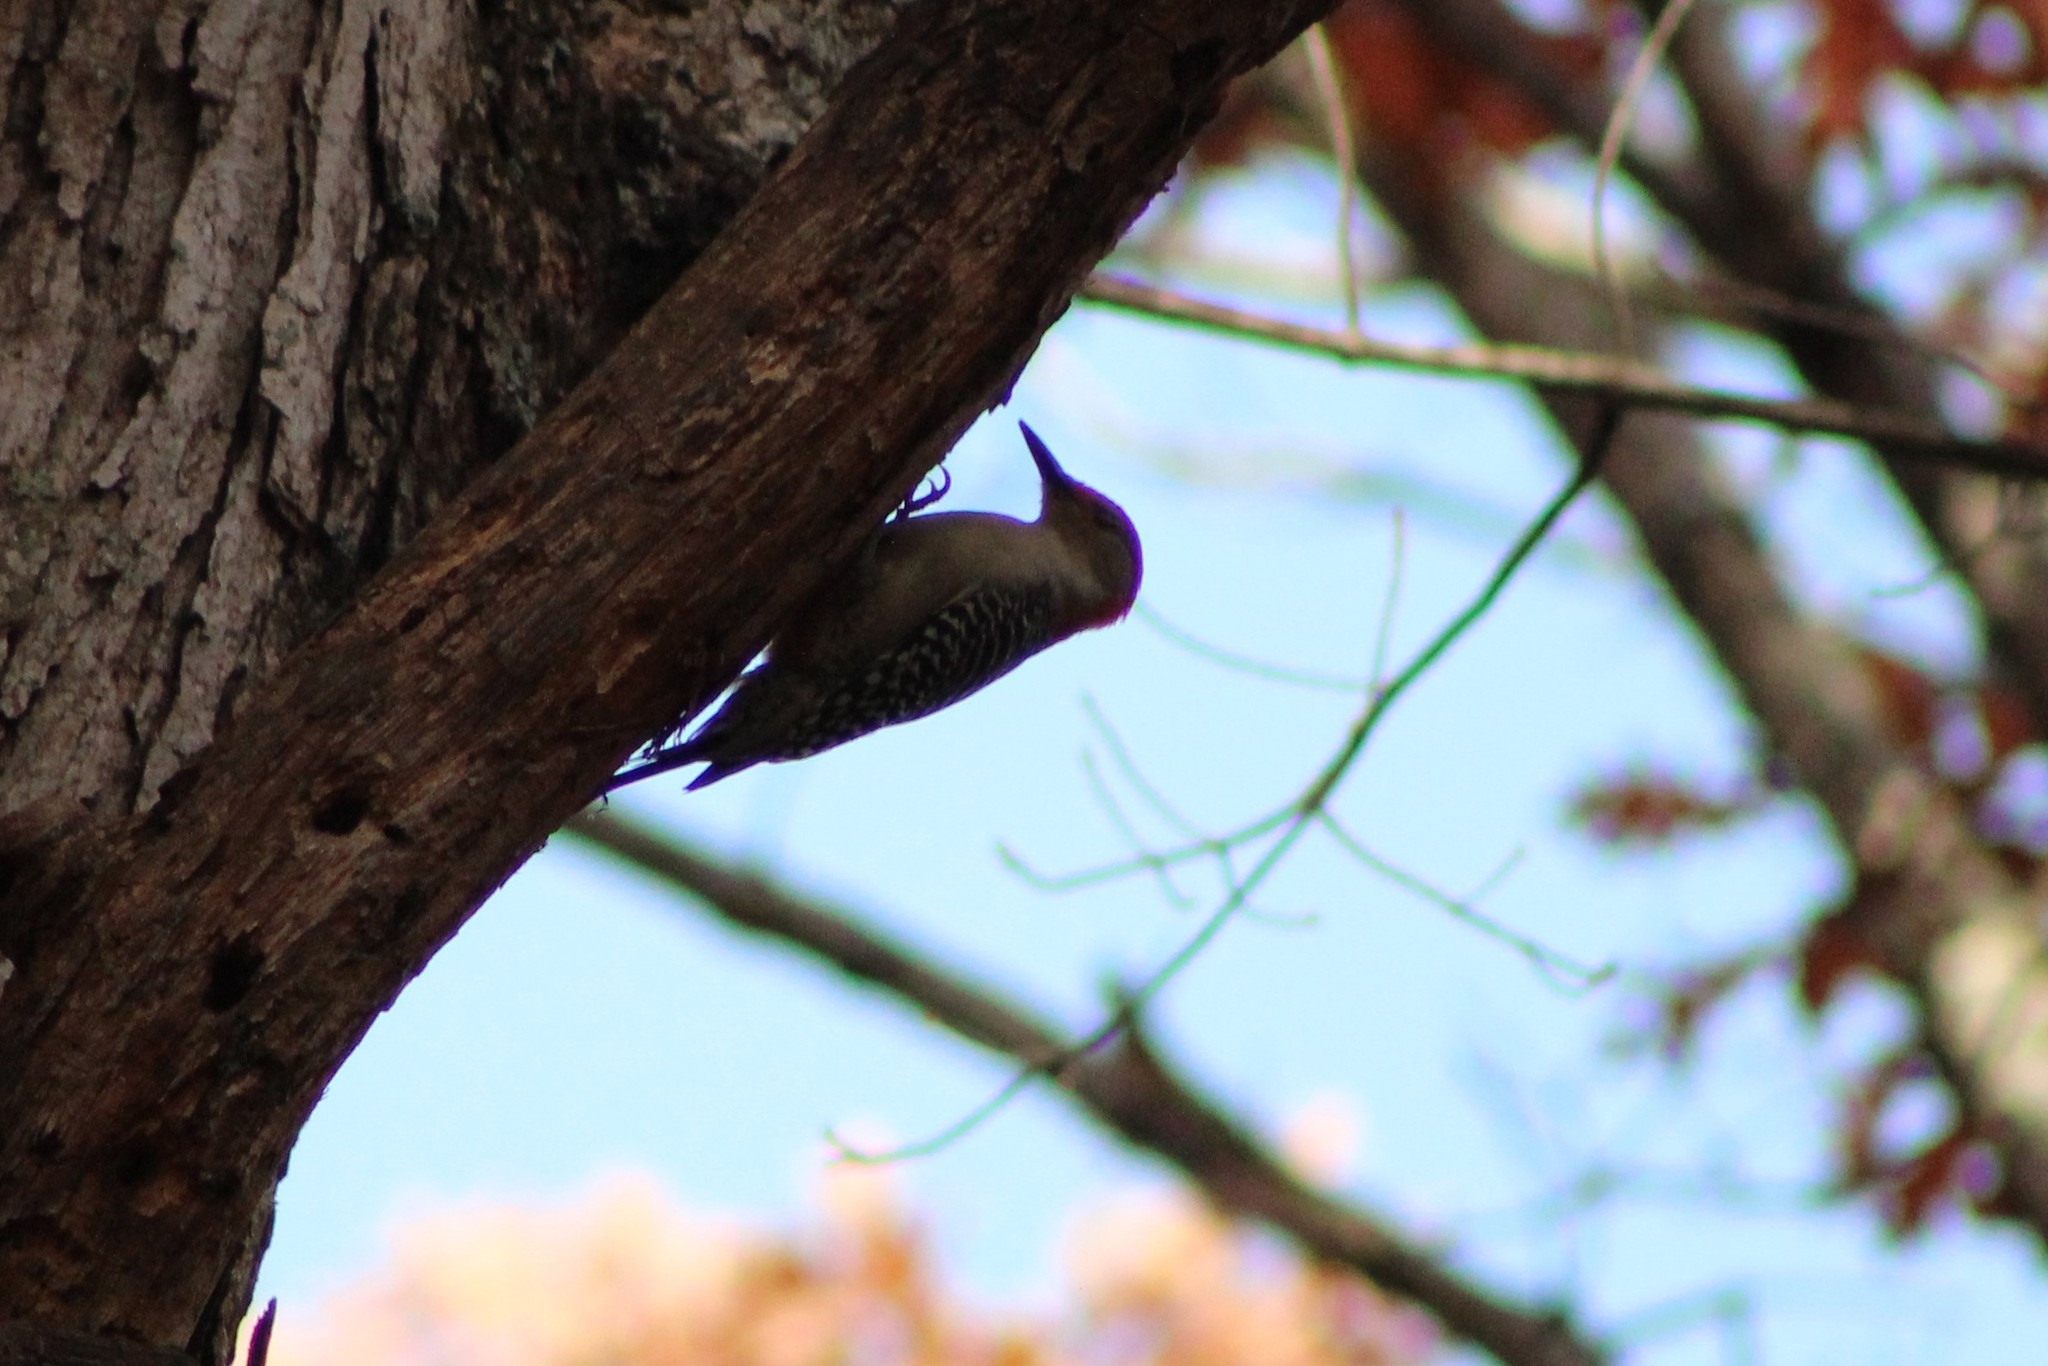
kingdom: Animalia
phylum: Chordata
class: Aves
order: Piciformes
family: Picidae
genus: Melanerpes
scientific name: Melanerpes carolinus
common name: Red-bellied woodpecker
